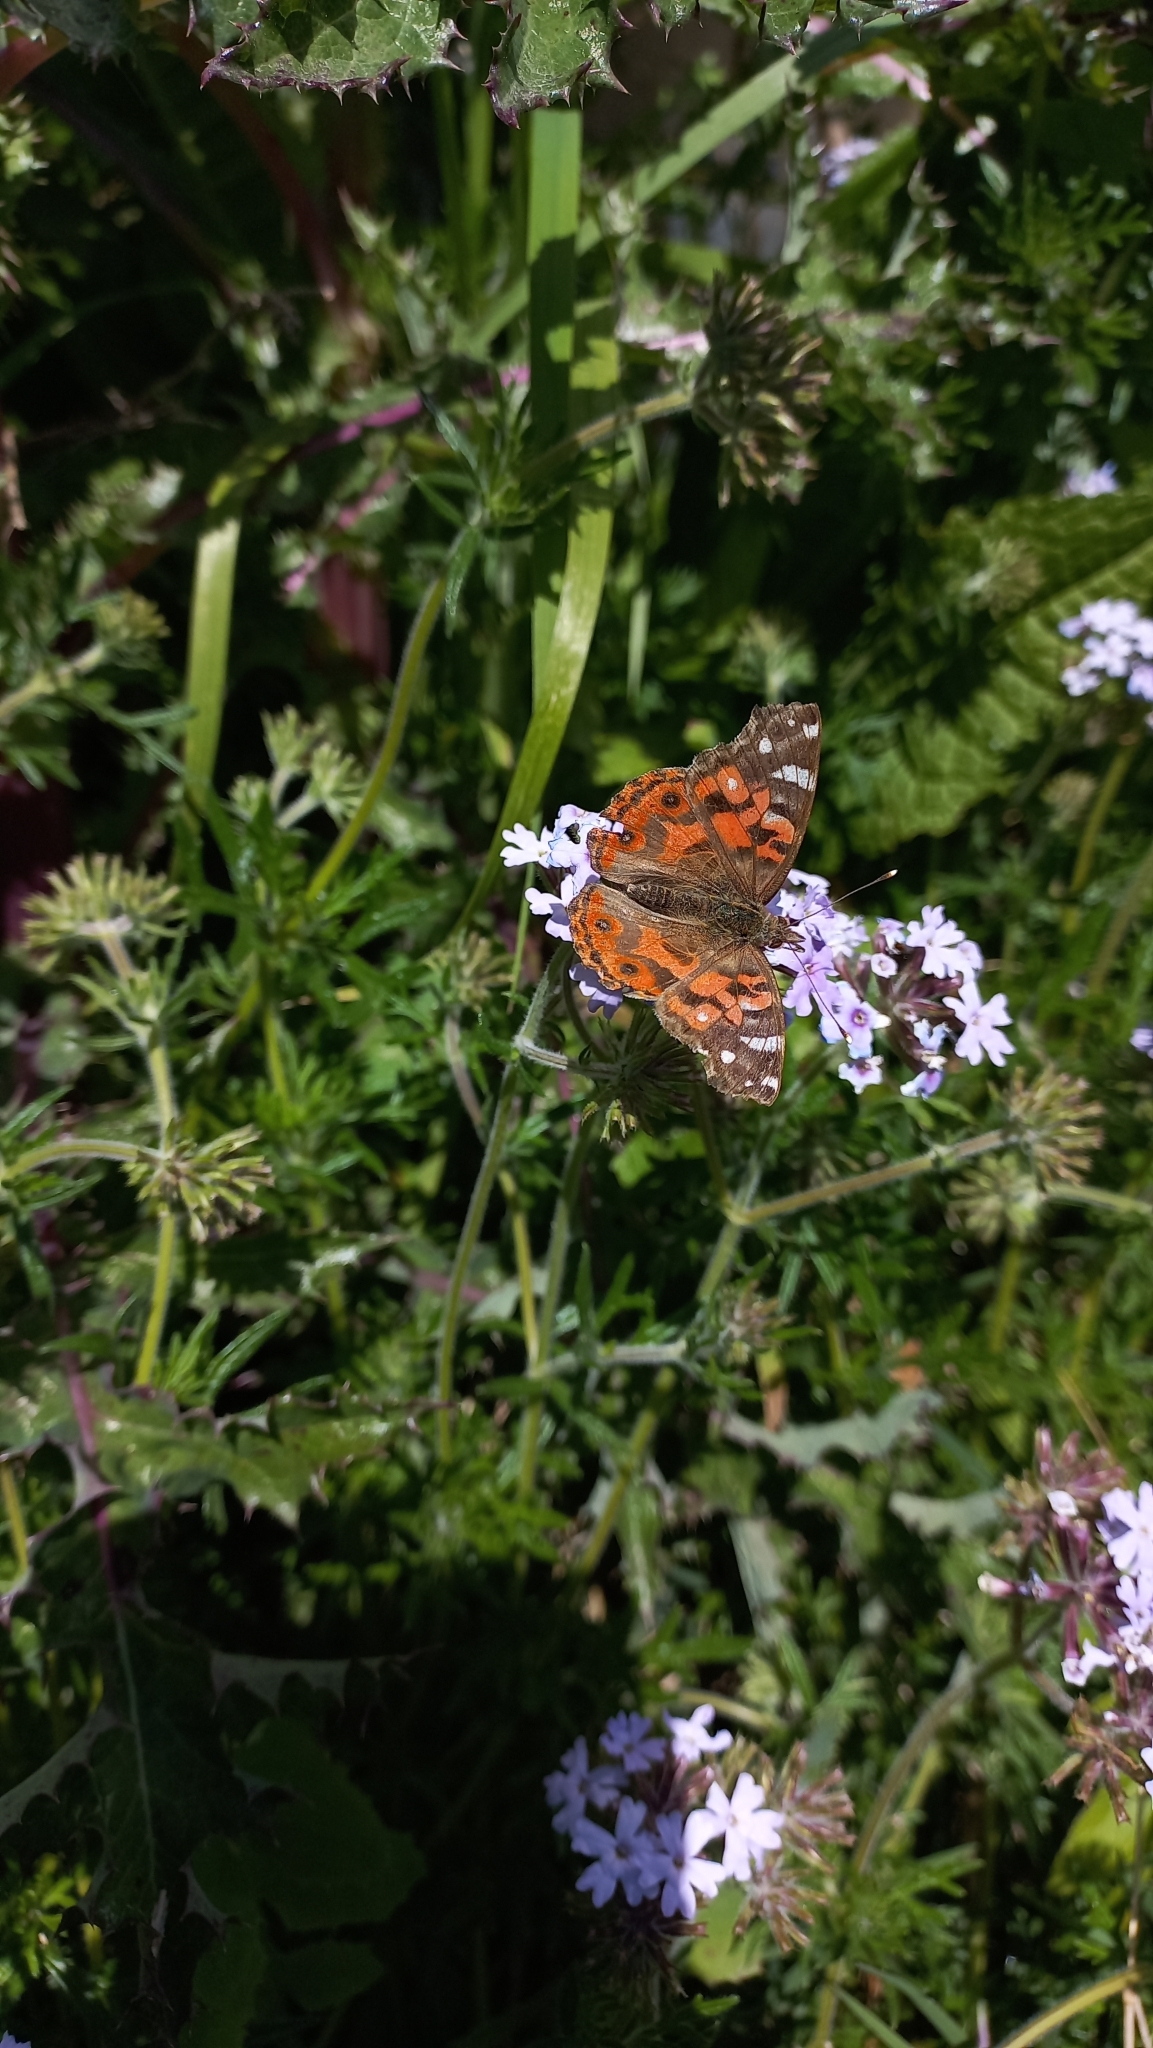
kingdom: Animalia
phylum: Arthropoda
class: Insecta
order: Lepidoptera
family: Nymphalidae
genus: Vanessa
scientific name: Vanessa braziliensis
